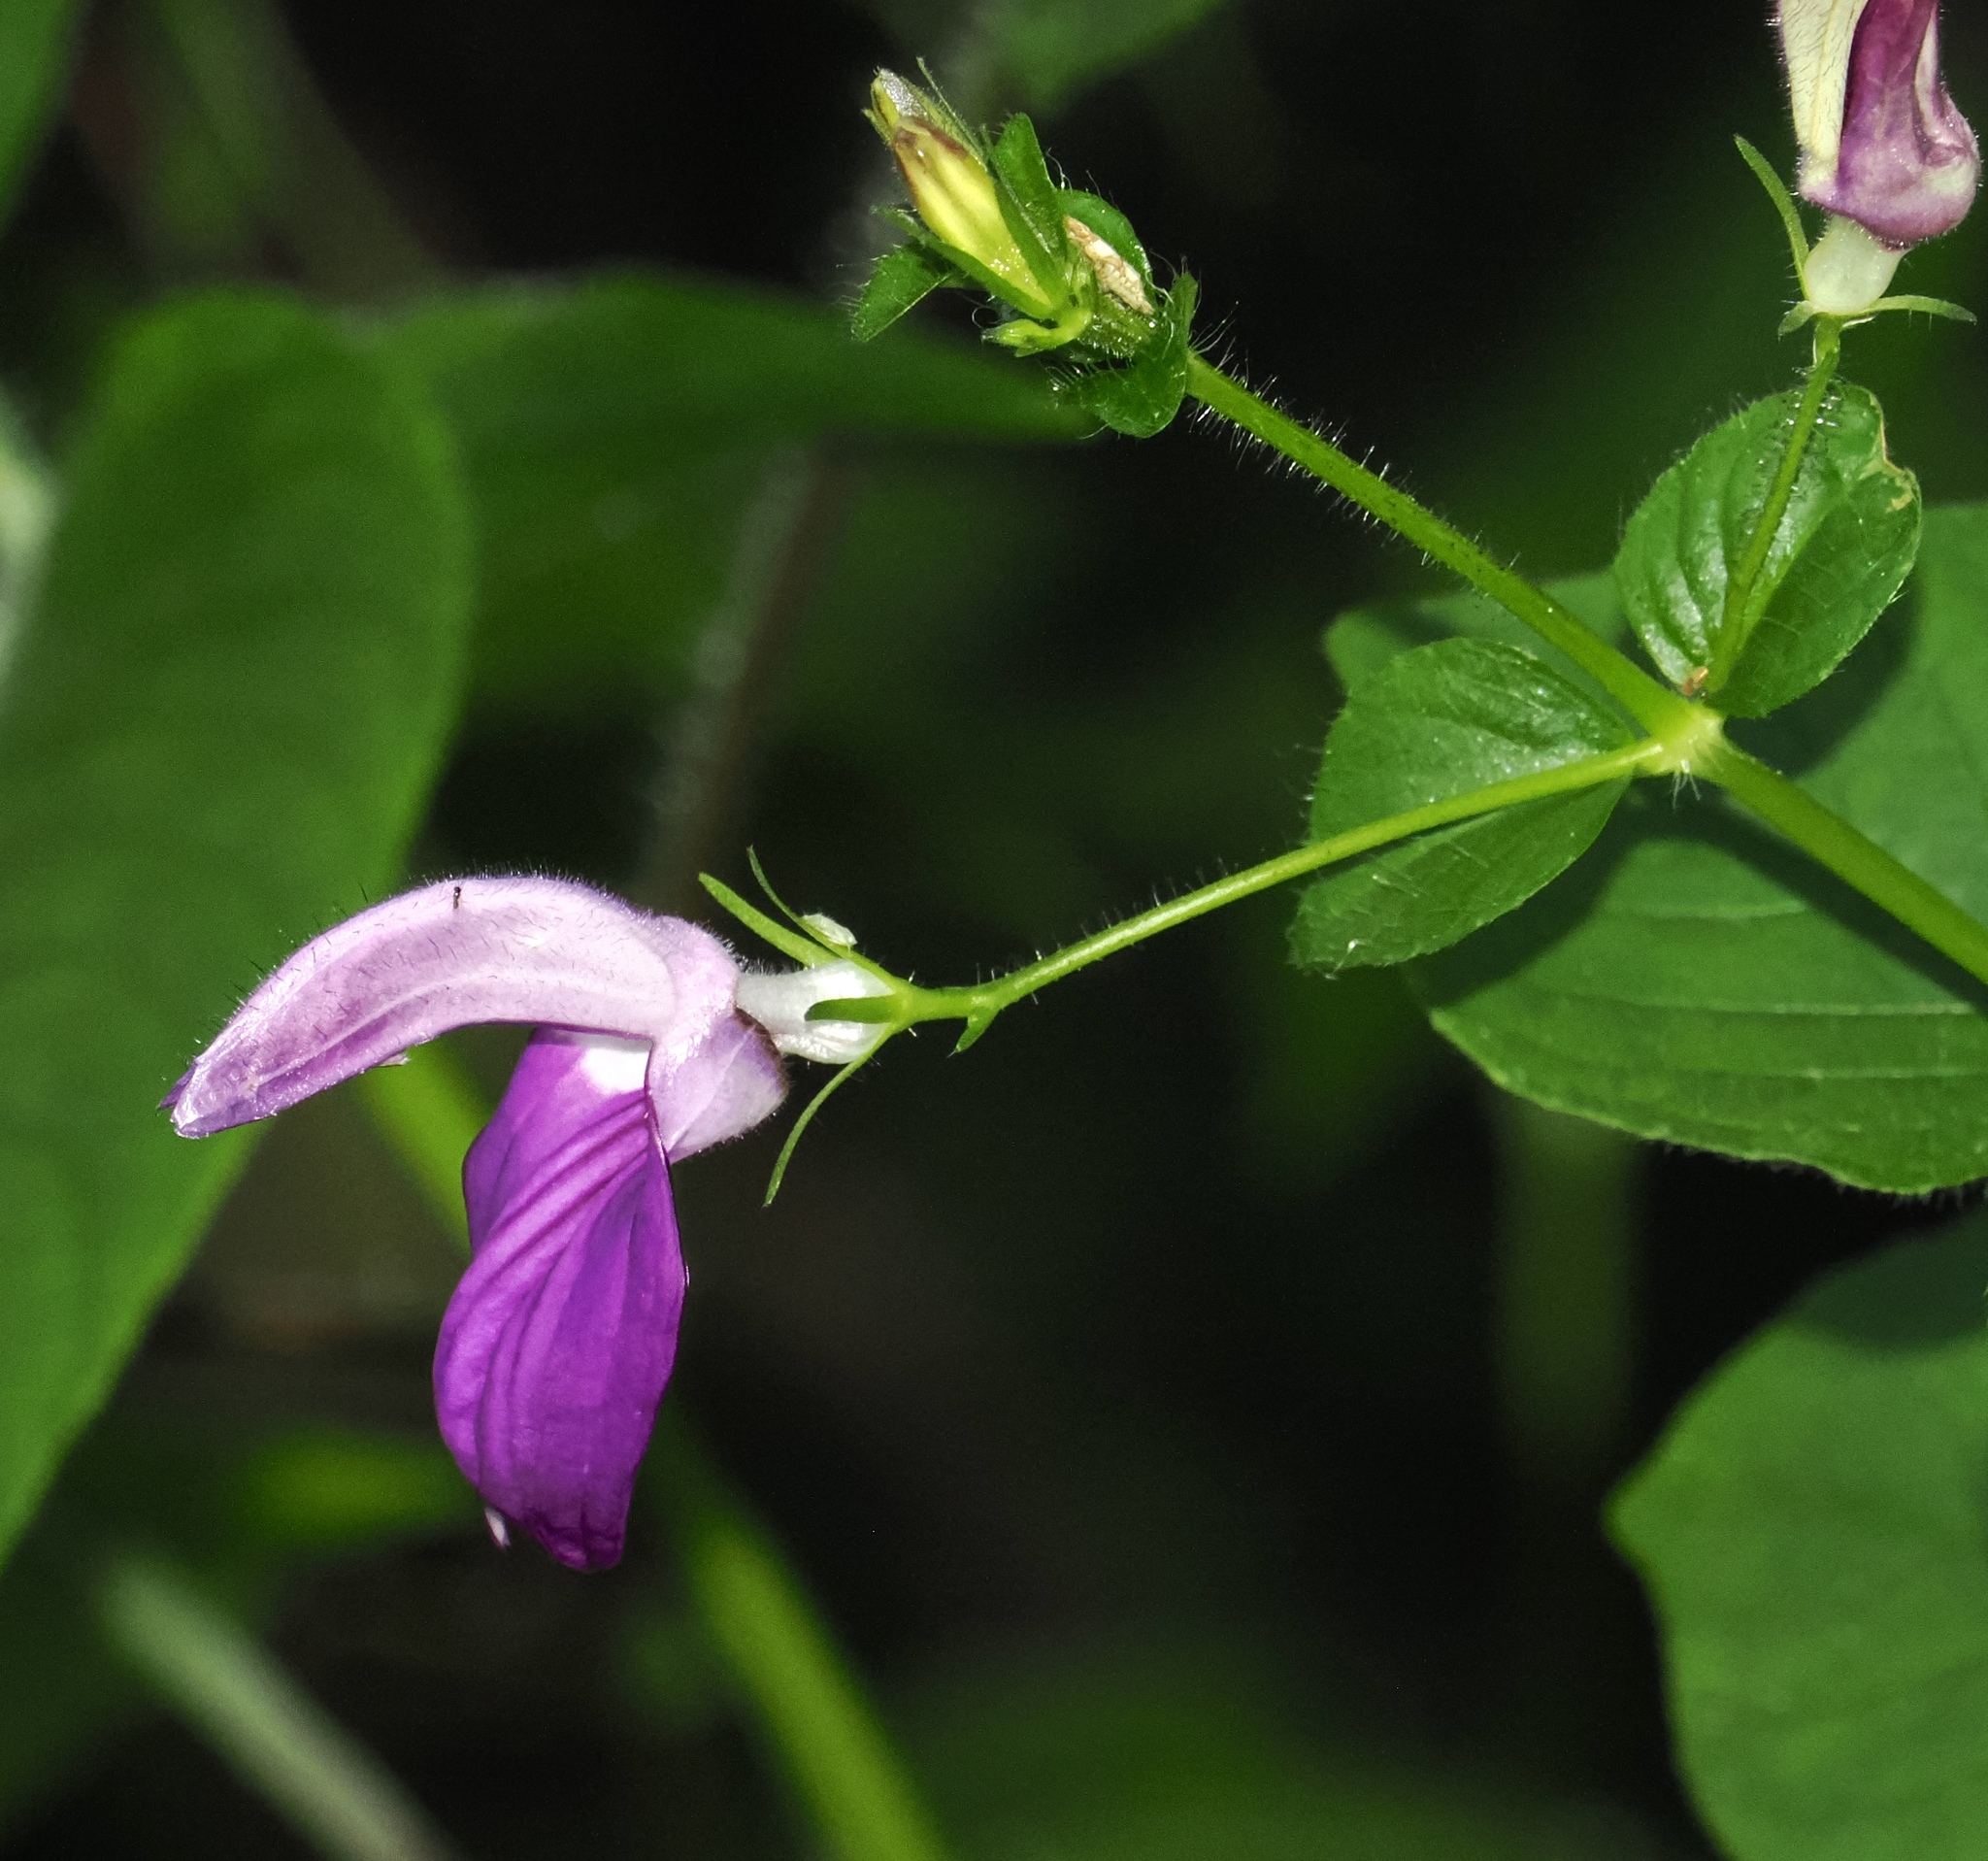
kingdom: Plantae
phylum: Tracheophyta
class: Magnoliopsida
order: Lamiales
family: Acanthaceae
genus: Brillantaisia
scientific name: Brillantaisia lamium
